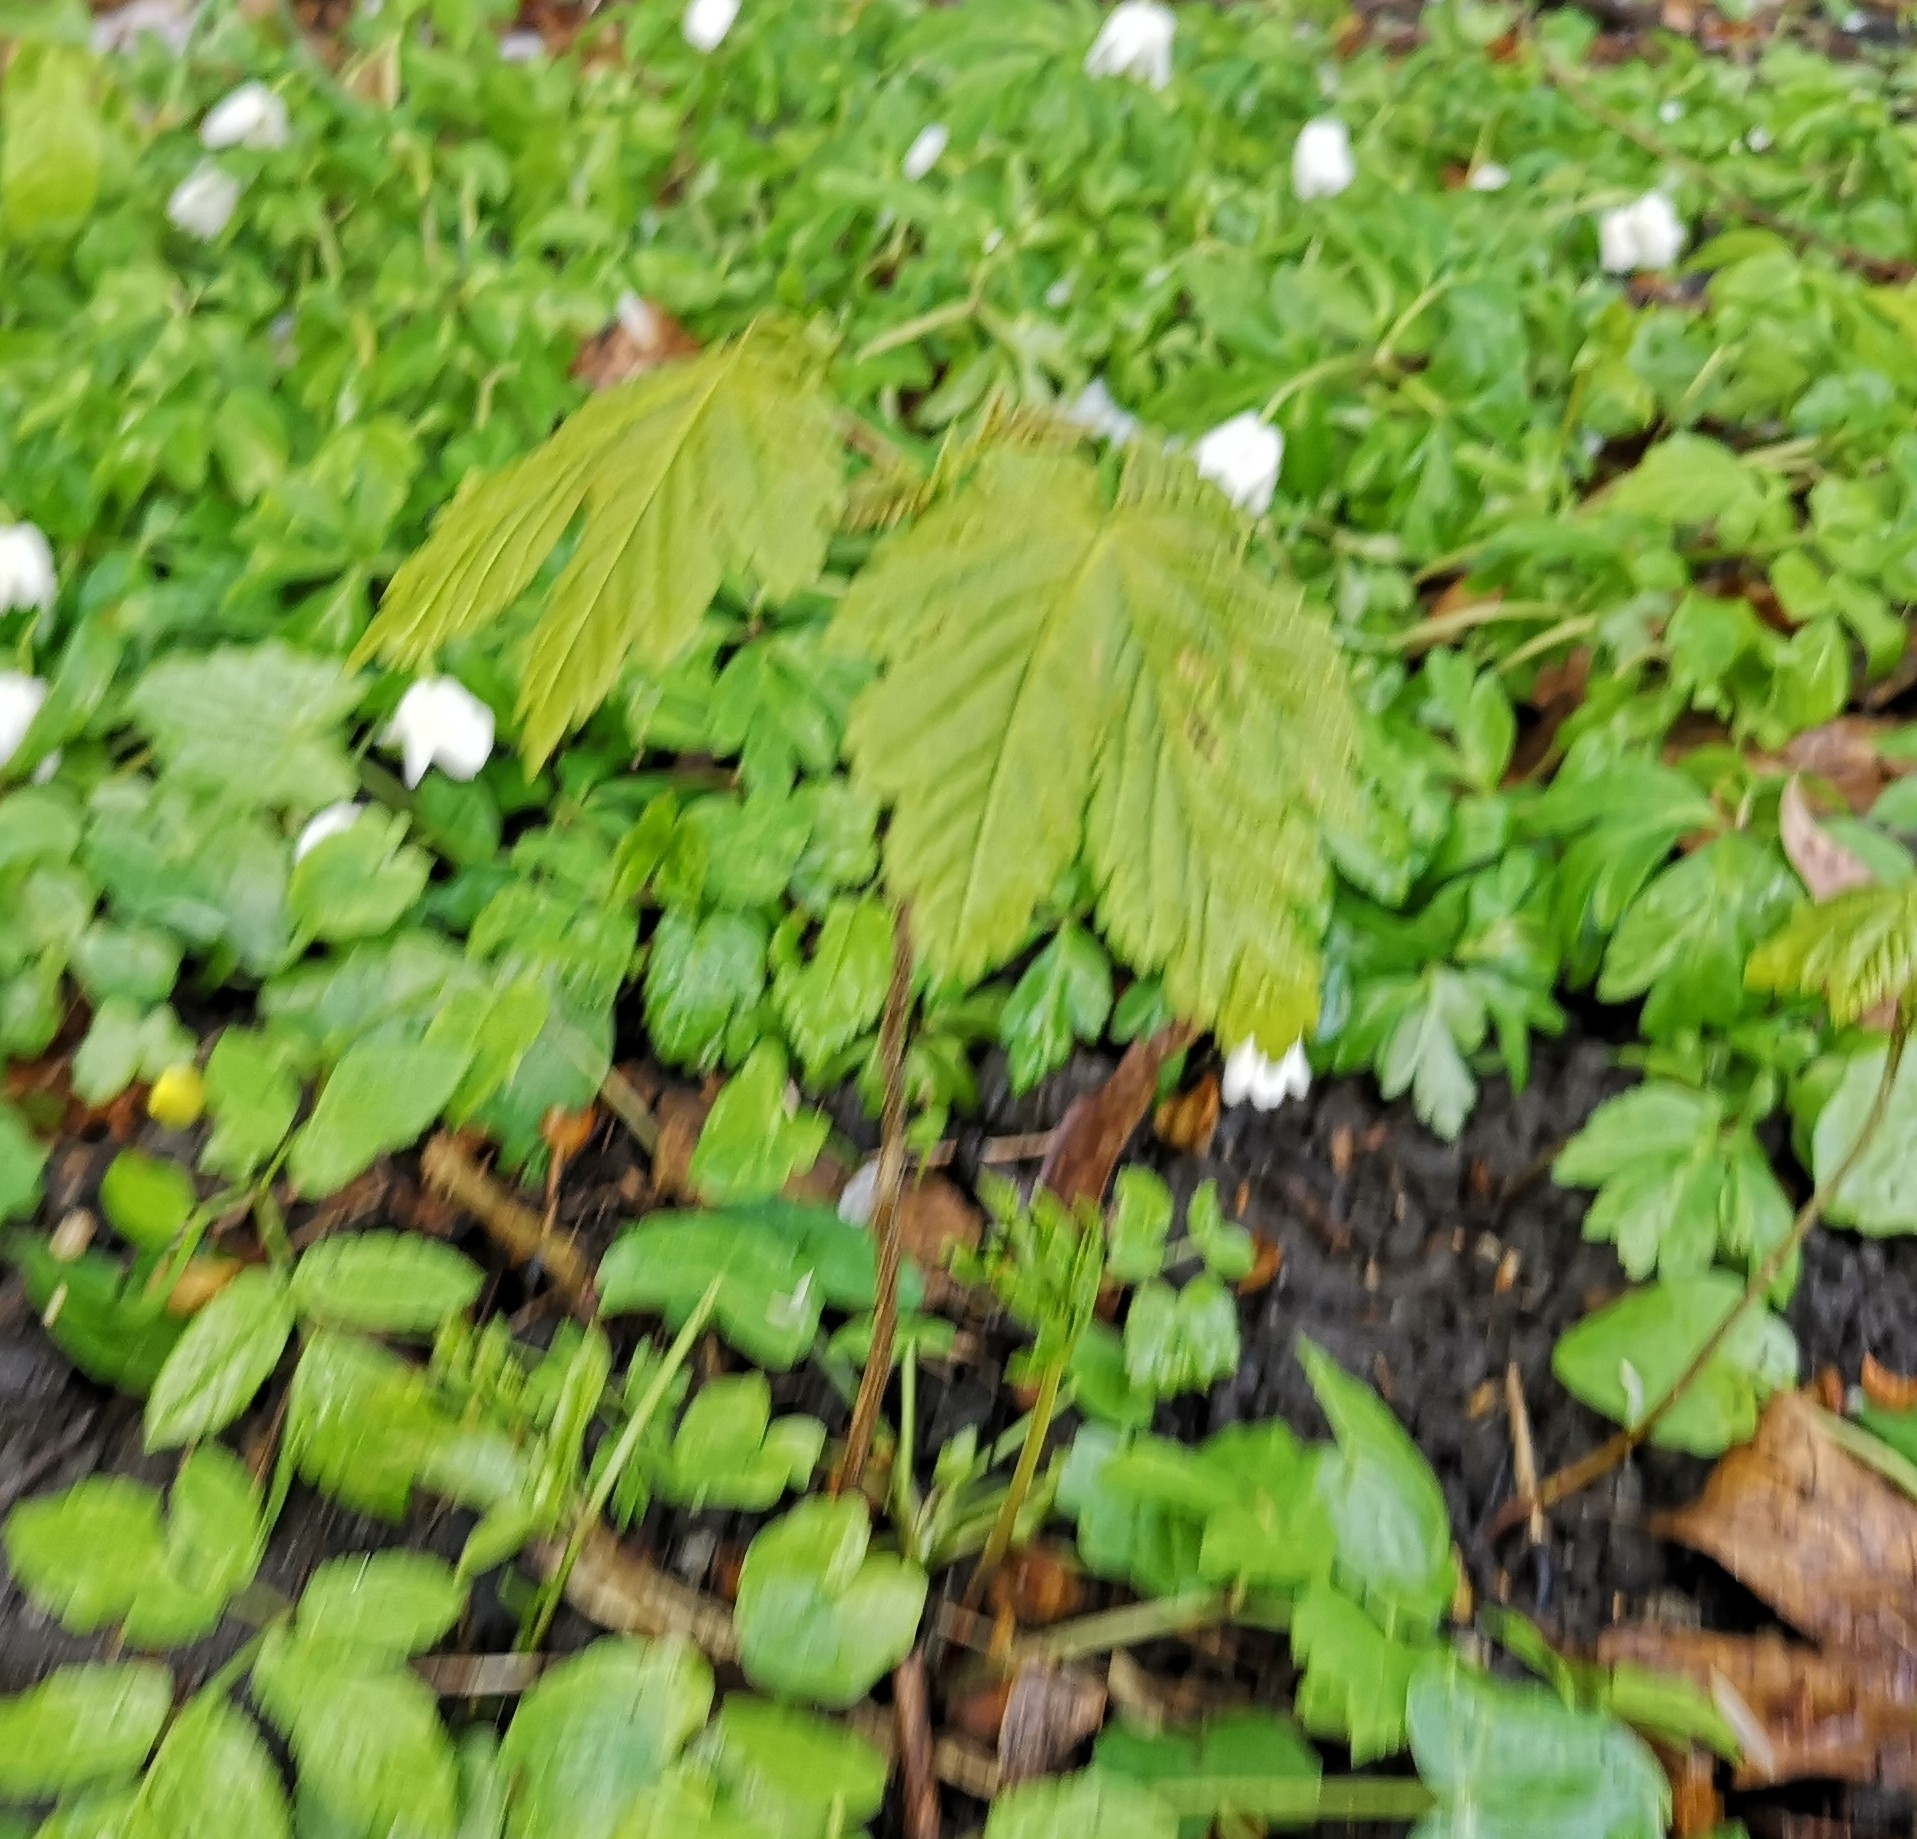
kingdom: Plantae
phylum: Tracheophyta
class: Magnoliopsida
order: Sapindales
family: Sapindaceae
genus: Acer
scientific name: Acer pseudoplatanus
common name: Sycamore
